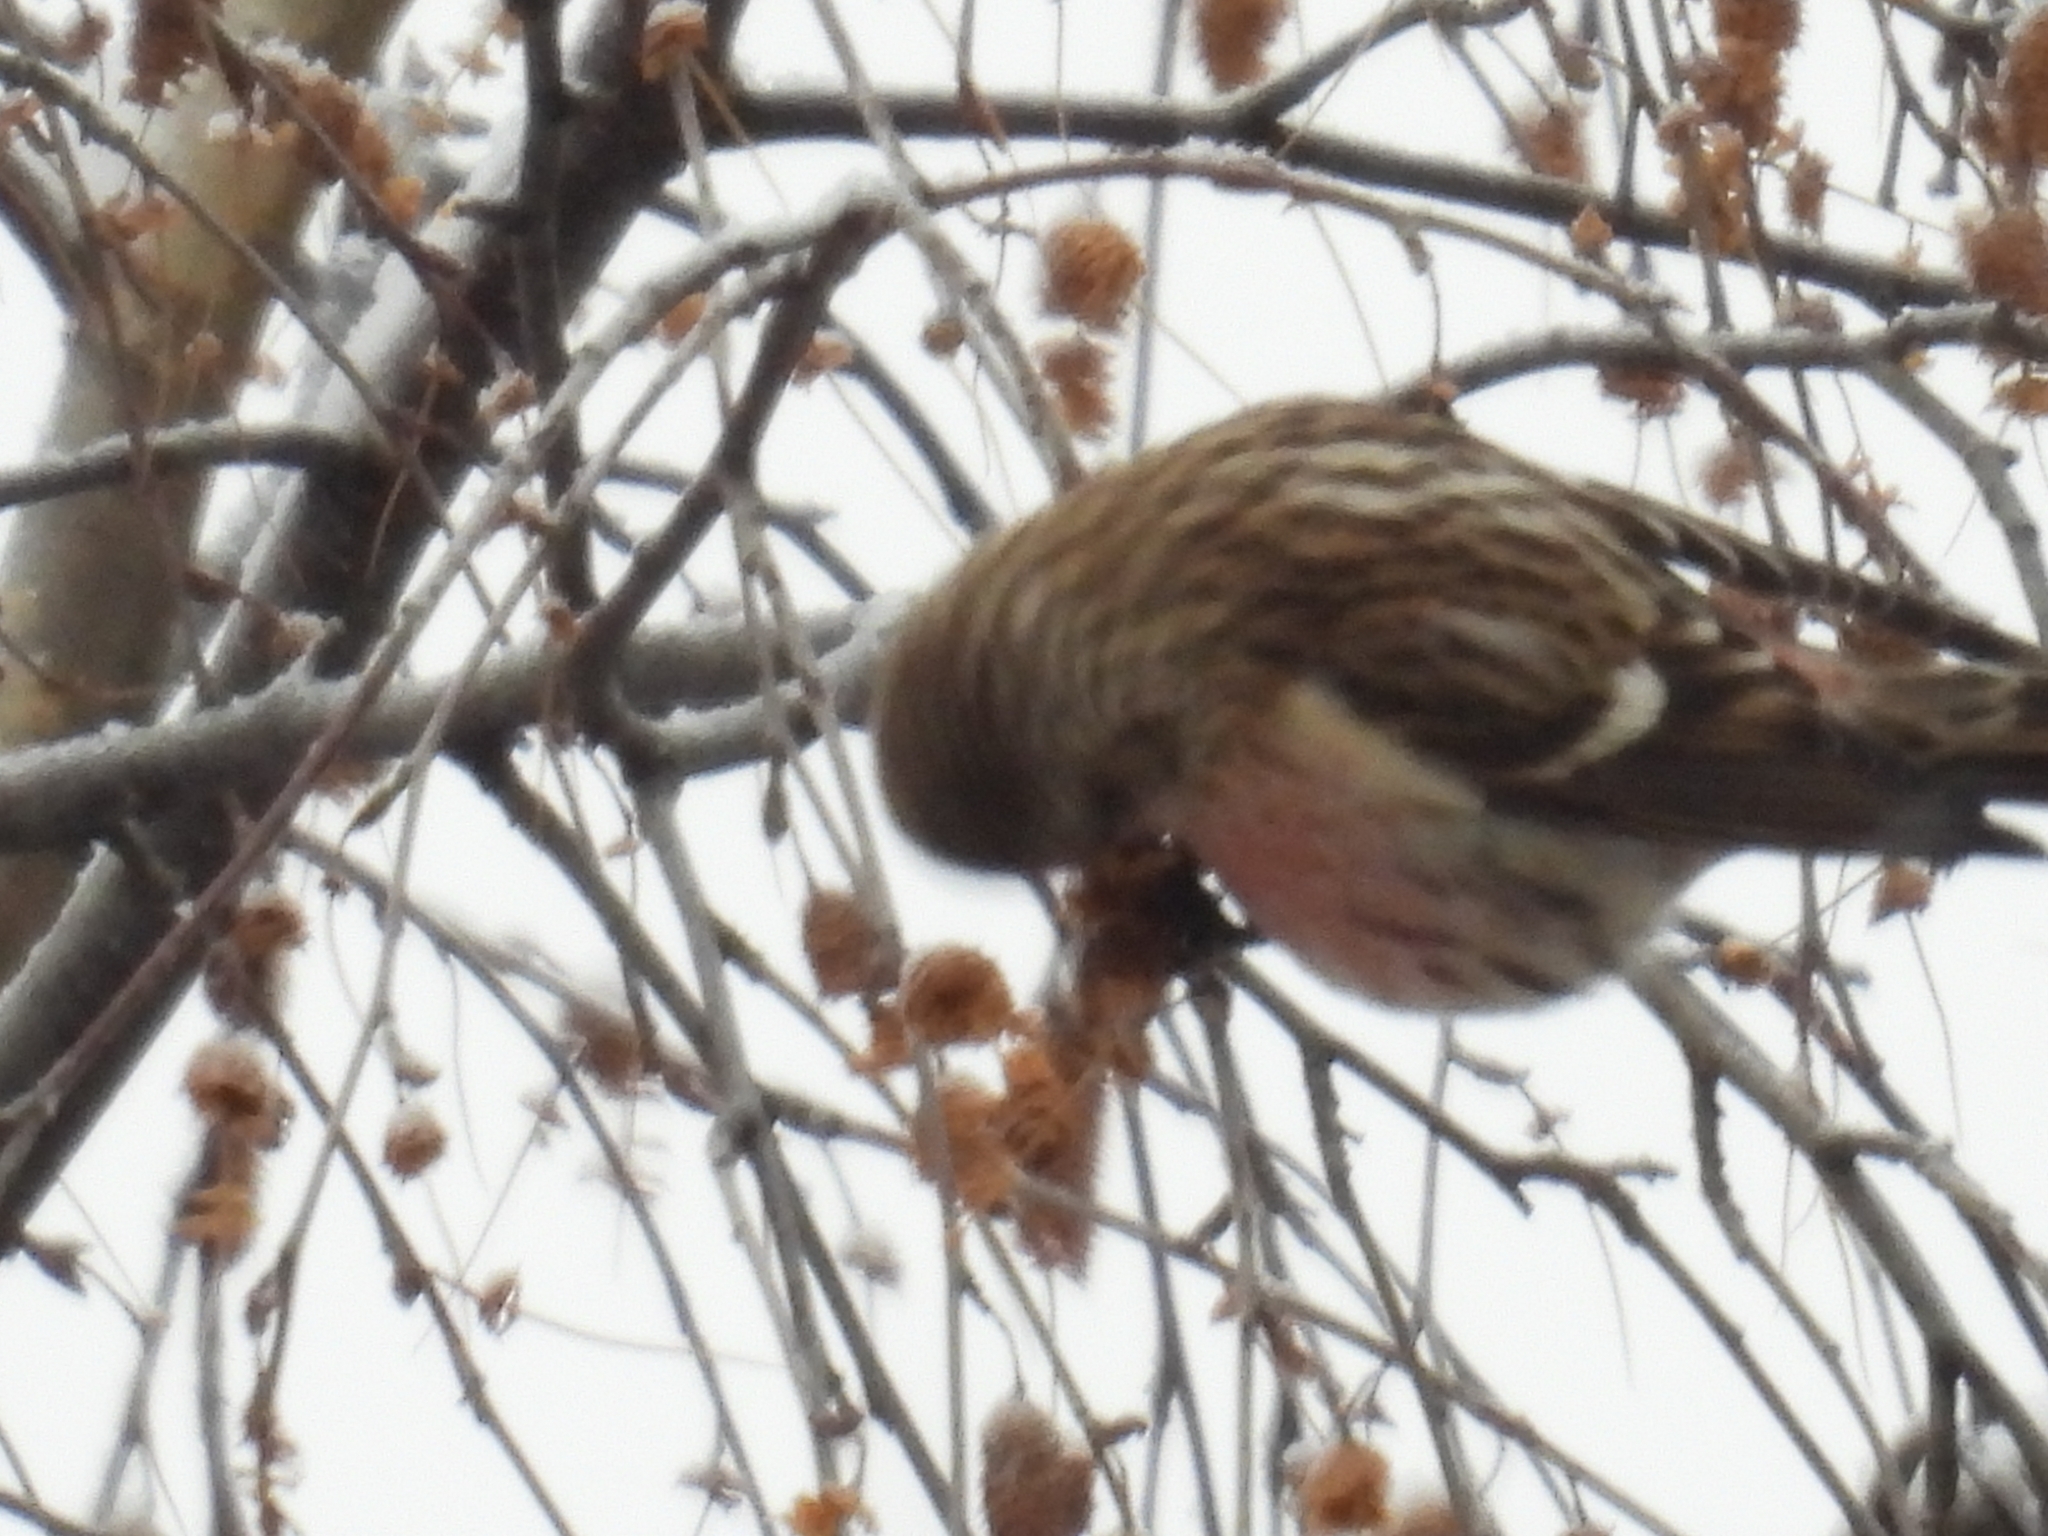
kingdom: Animalia
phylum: Chordata
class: Aves
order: Passeriformes
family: Fringillidae
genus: Acanthis
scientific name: Acanthis flammea
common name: Common redpoll
